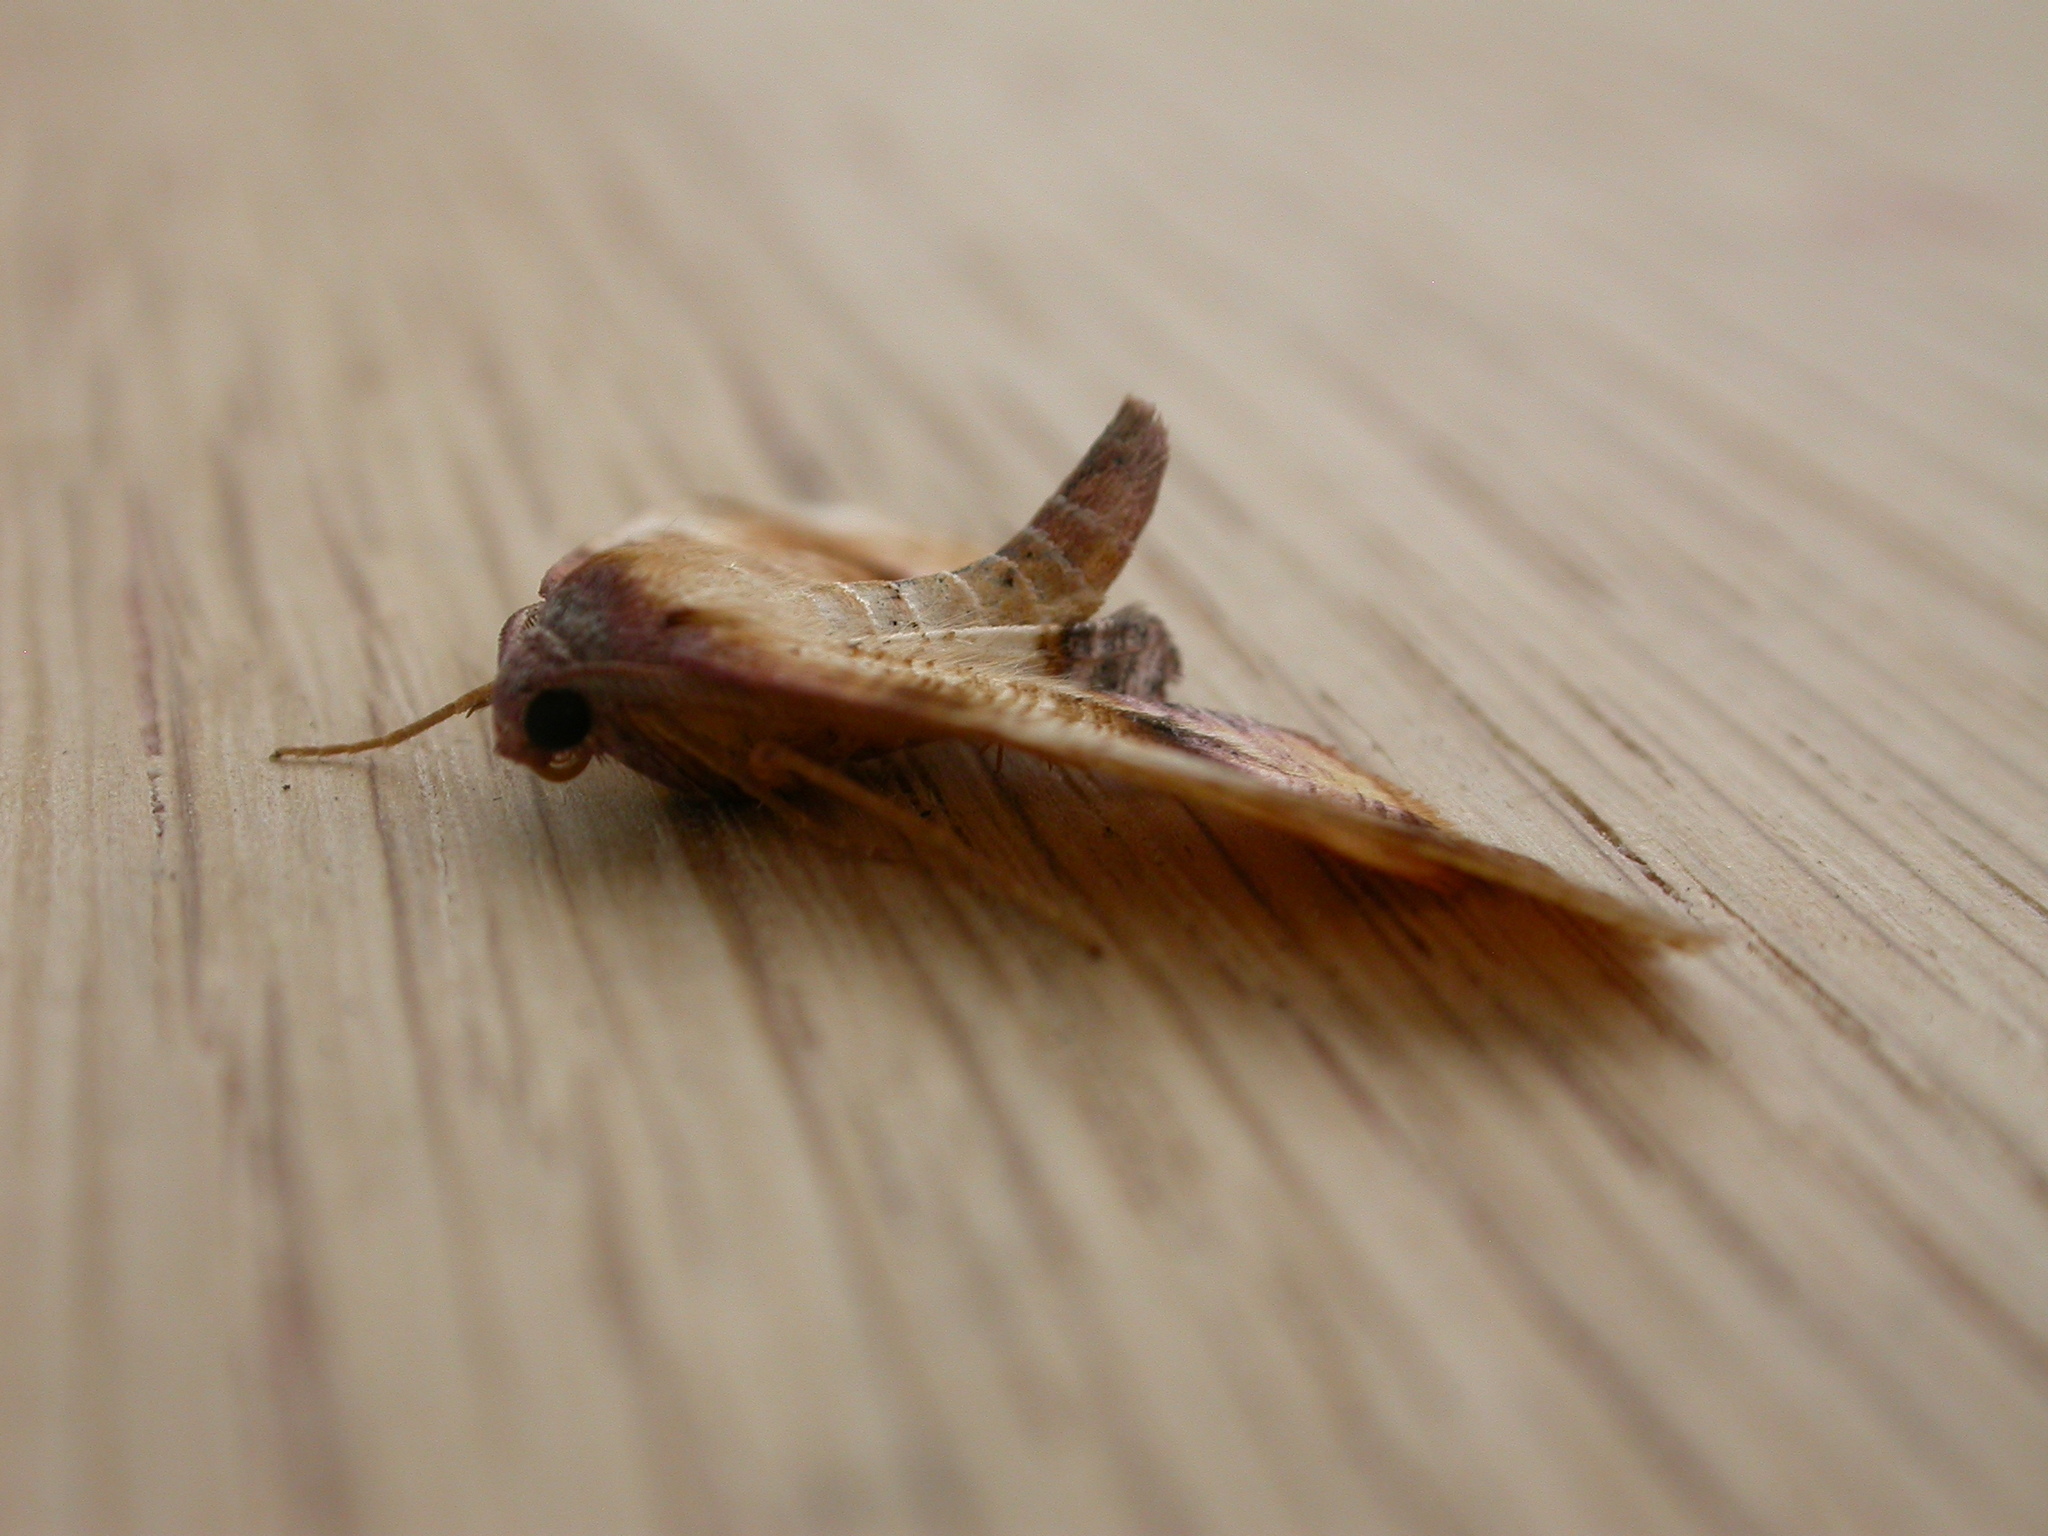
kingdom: Animalia
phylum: Arthropoda
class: Insecta
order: Lepidoptera
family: Geometridae
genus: Plagodis
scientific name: Plagodis dolabraria
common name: Scorched wing
